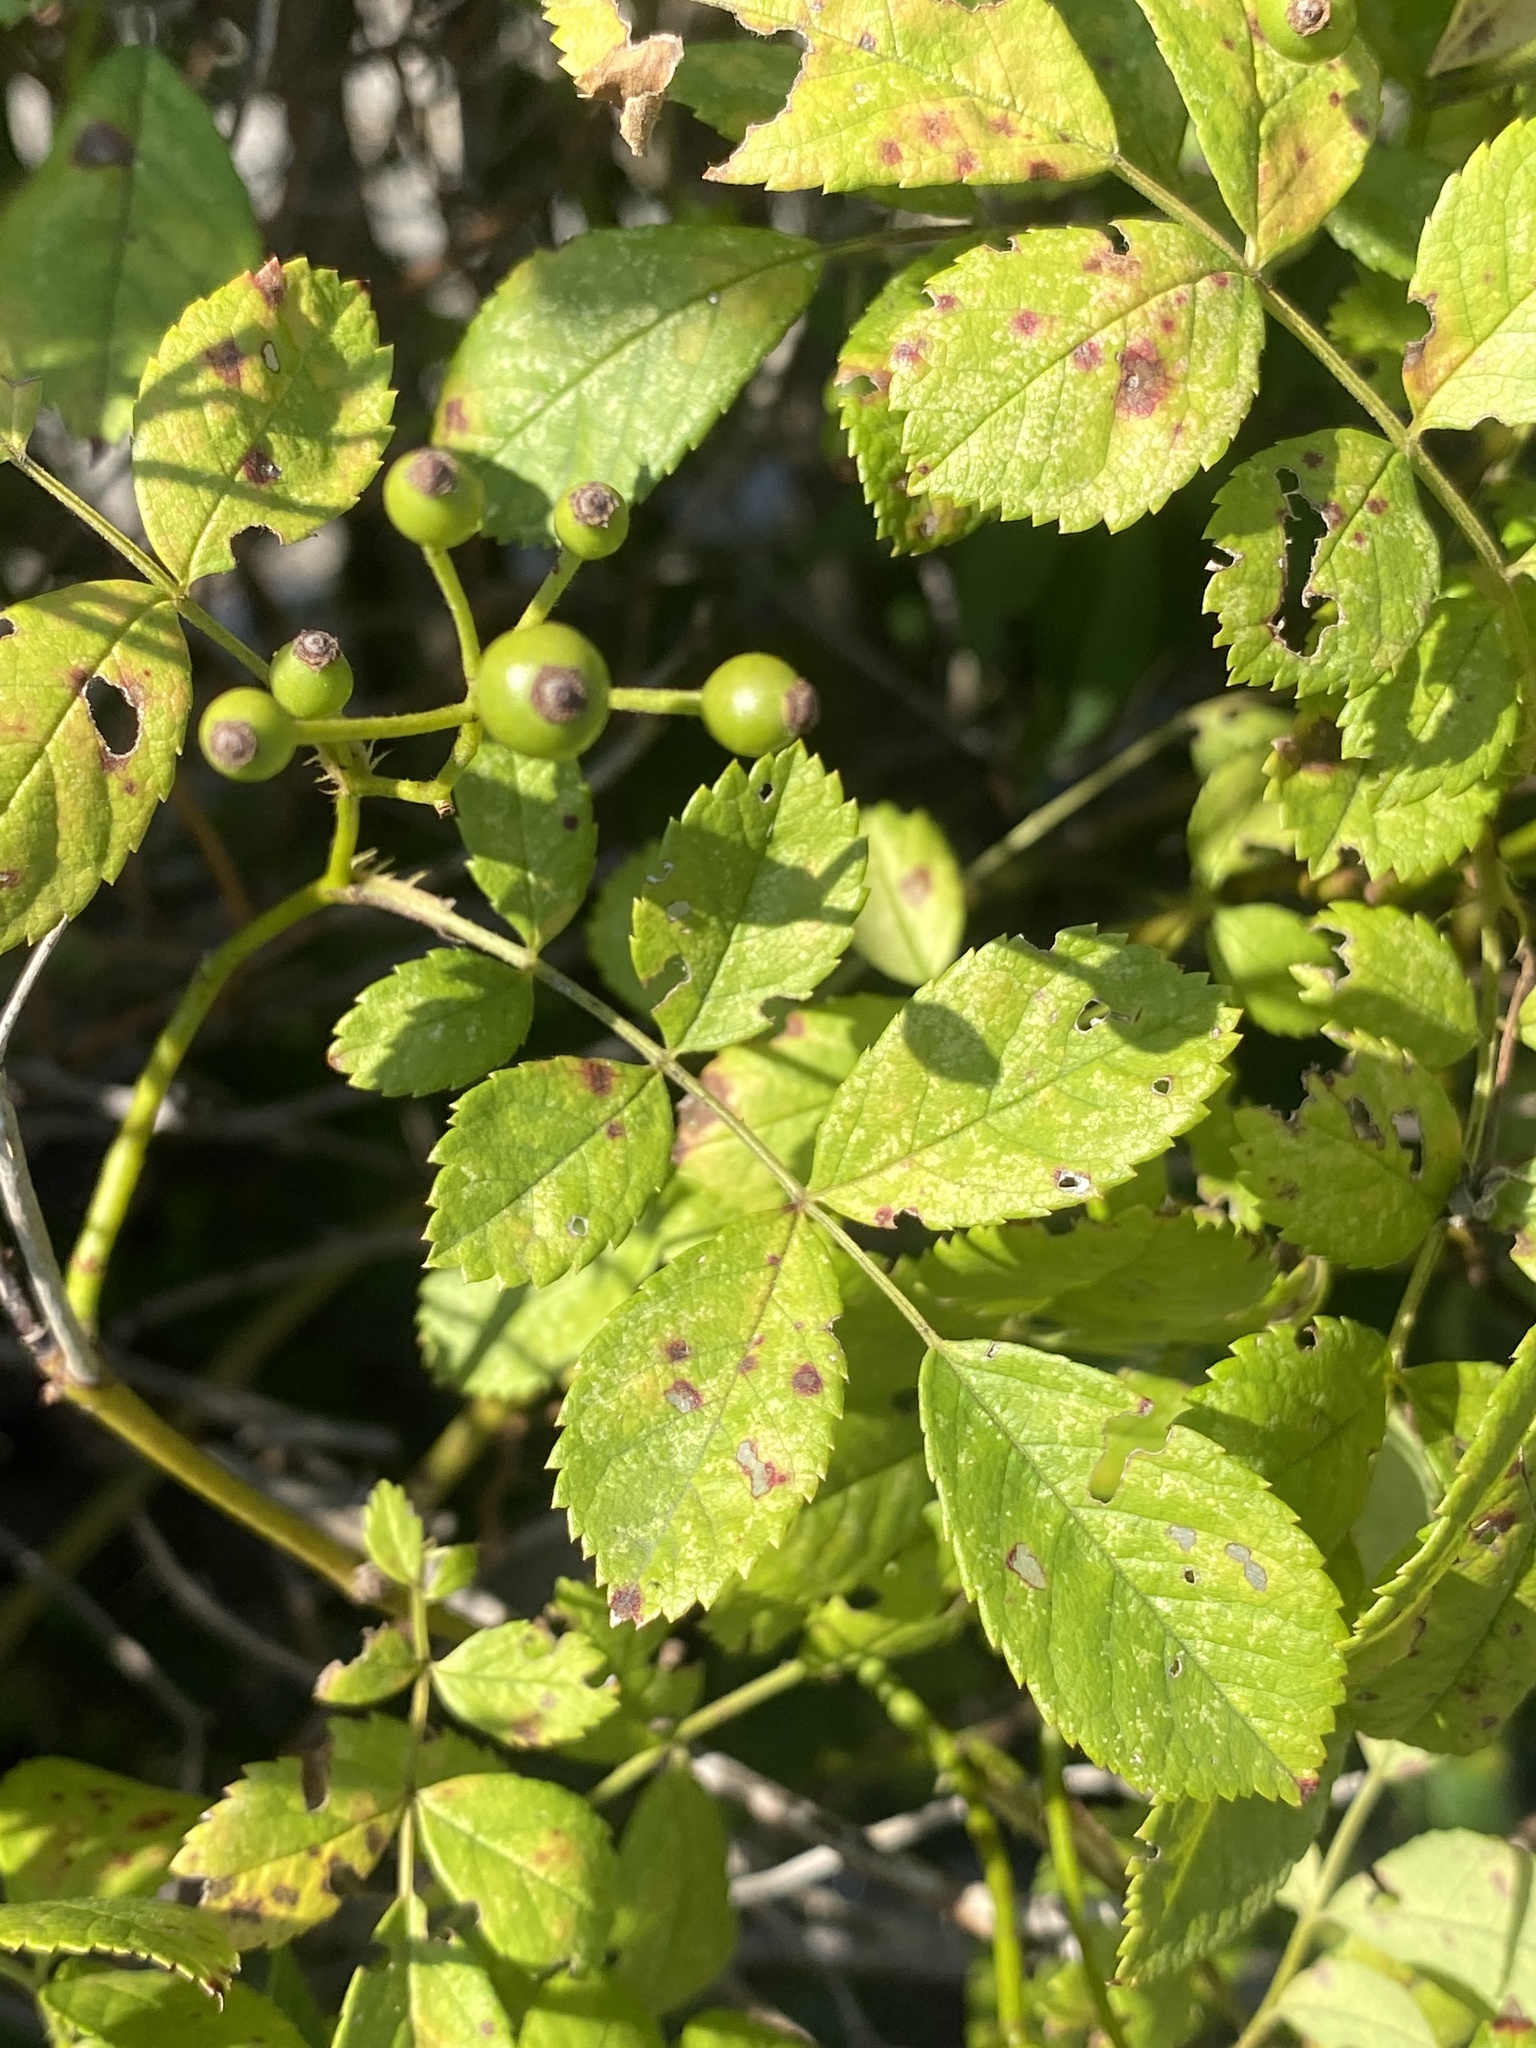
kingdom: Plantae
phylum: Tracheophyta
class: Magnoliopsida
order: Rosales
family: Rosaceae
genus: Rosa
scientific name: Rosa multiflora
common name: Multiflora rose
